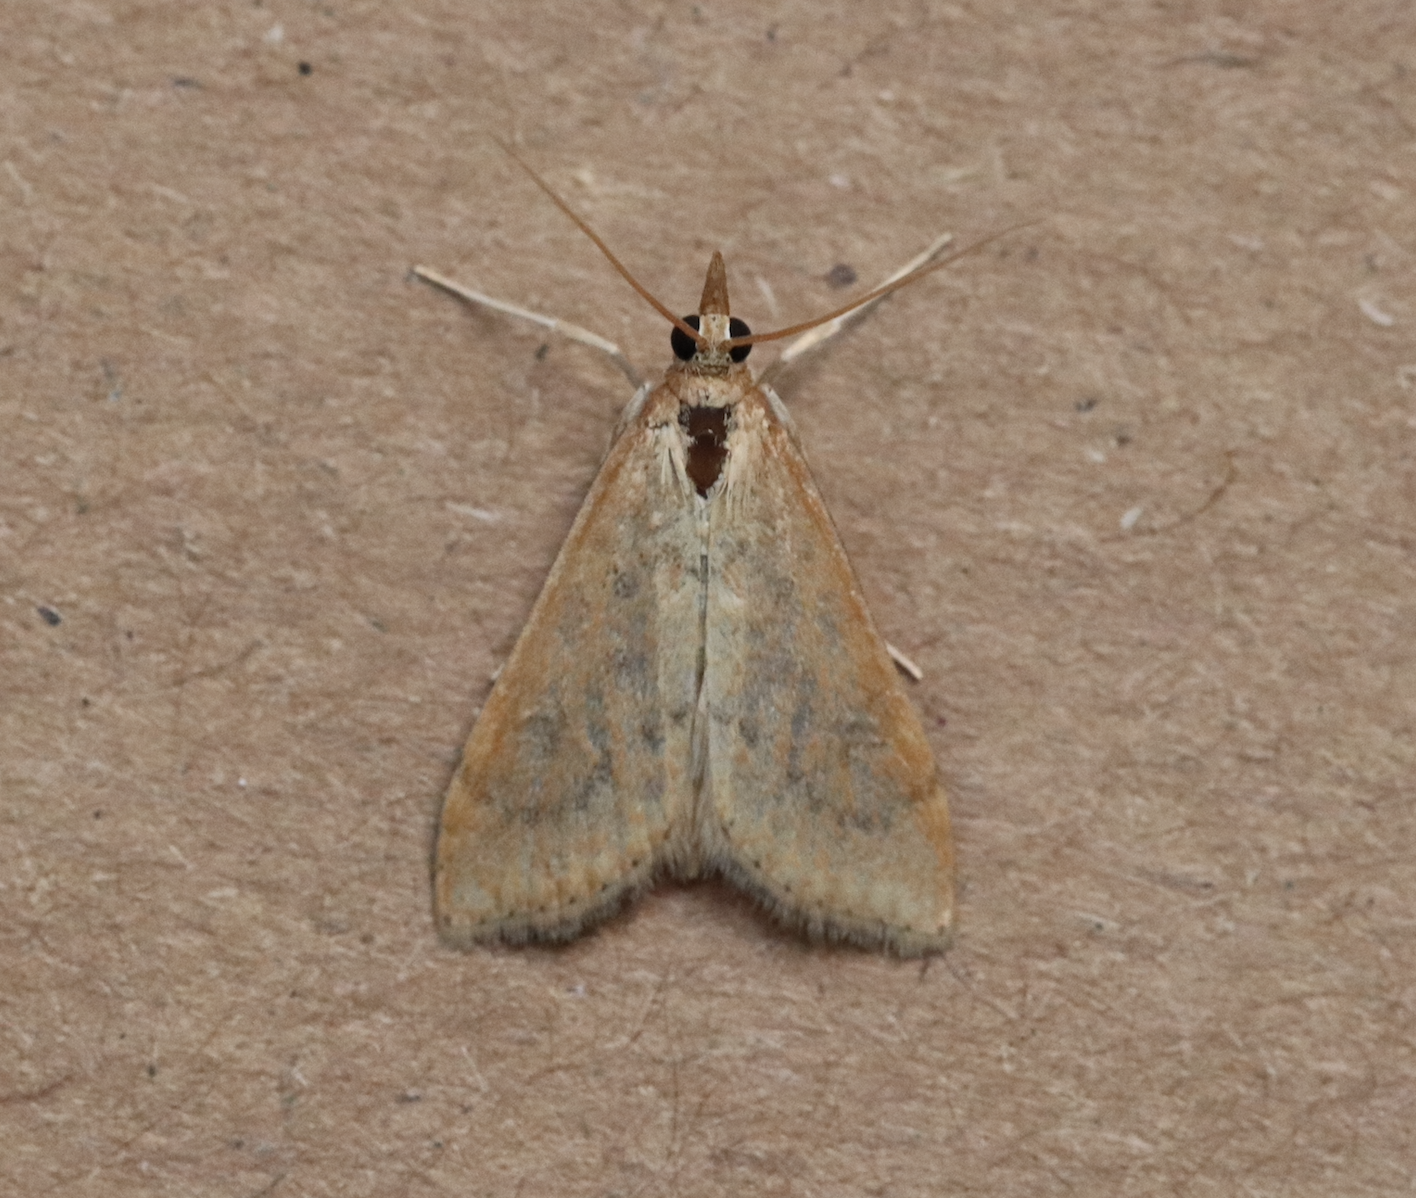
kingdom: Animalia
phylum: Arthropoda
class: Insecta
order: Lepidoptera
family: Crambidae
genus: Udea
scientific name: Udea ferrugalis
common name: Rusty dot
